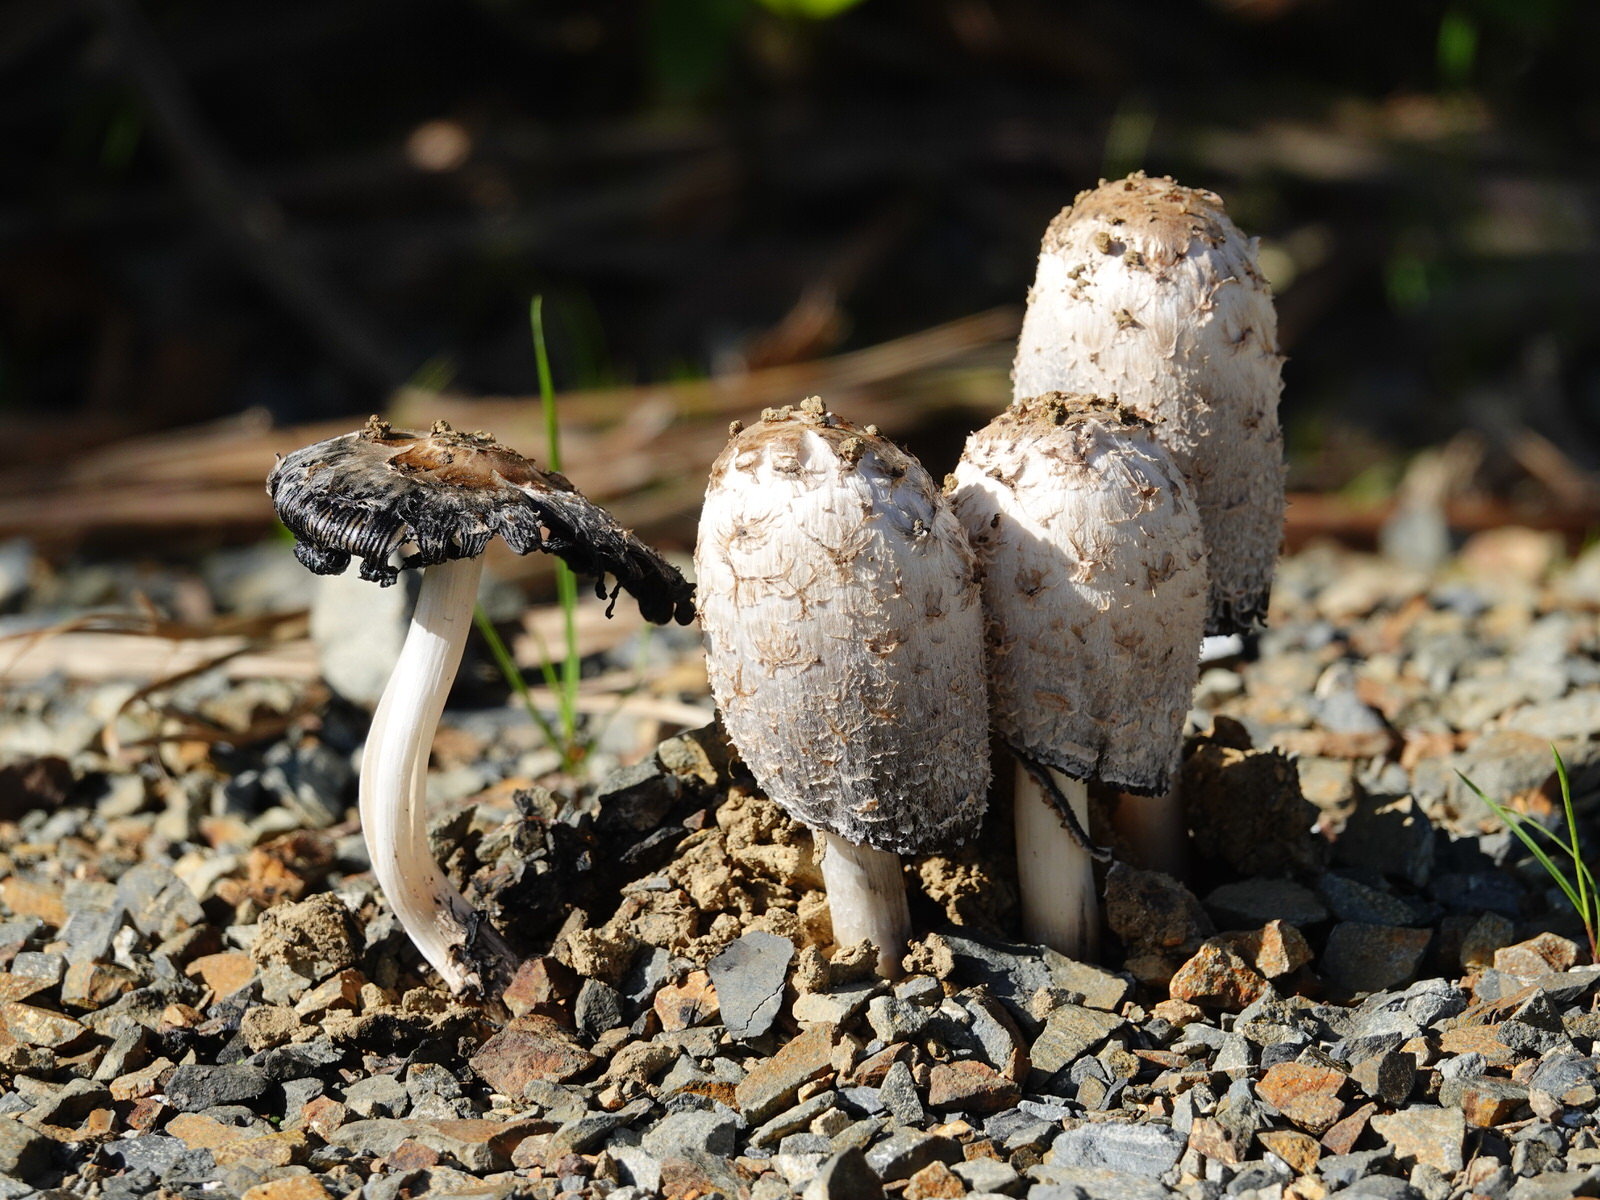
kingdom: Fungi
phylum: Basidiomycota
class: Agaricomycetes
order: Agaricales
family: Agaricaceae
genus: Coprinus
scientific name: Coprinus comatus
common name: Lawyer's wig
